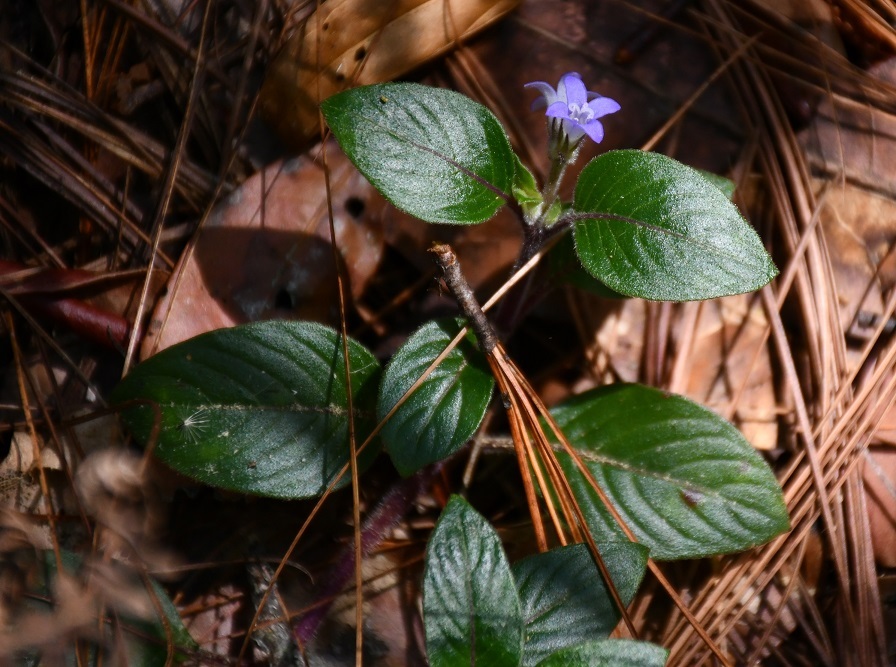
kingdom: Plantae
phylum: Tracheophyta
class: Magnoliopsida
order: Gentianales
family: Rubiaceae
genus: Coccocypselum
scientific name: Coccocypselum hirsutum
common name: Yerba de guava
